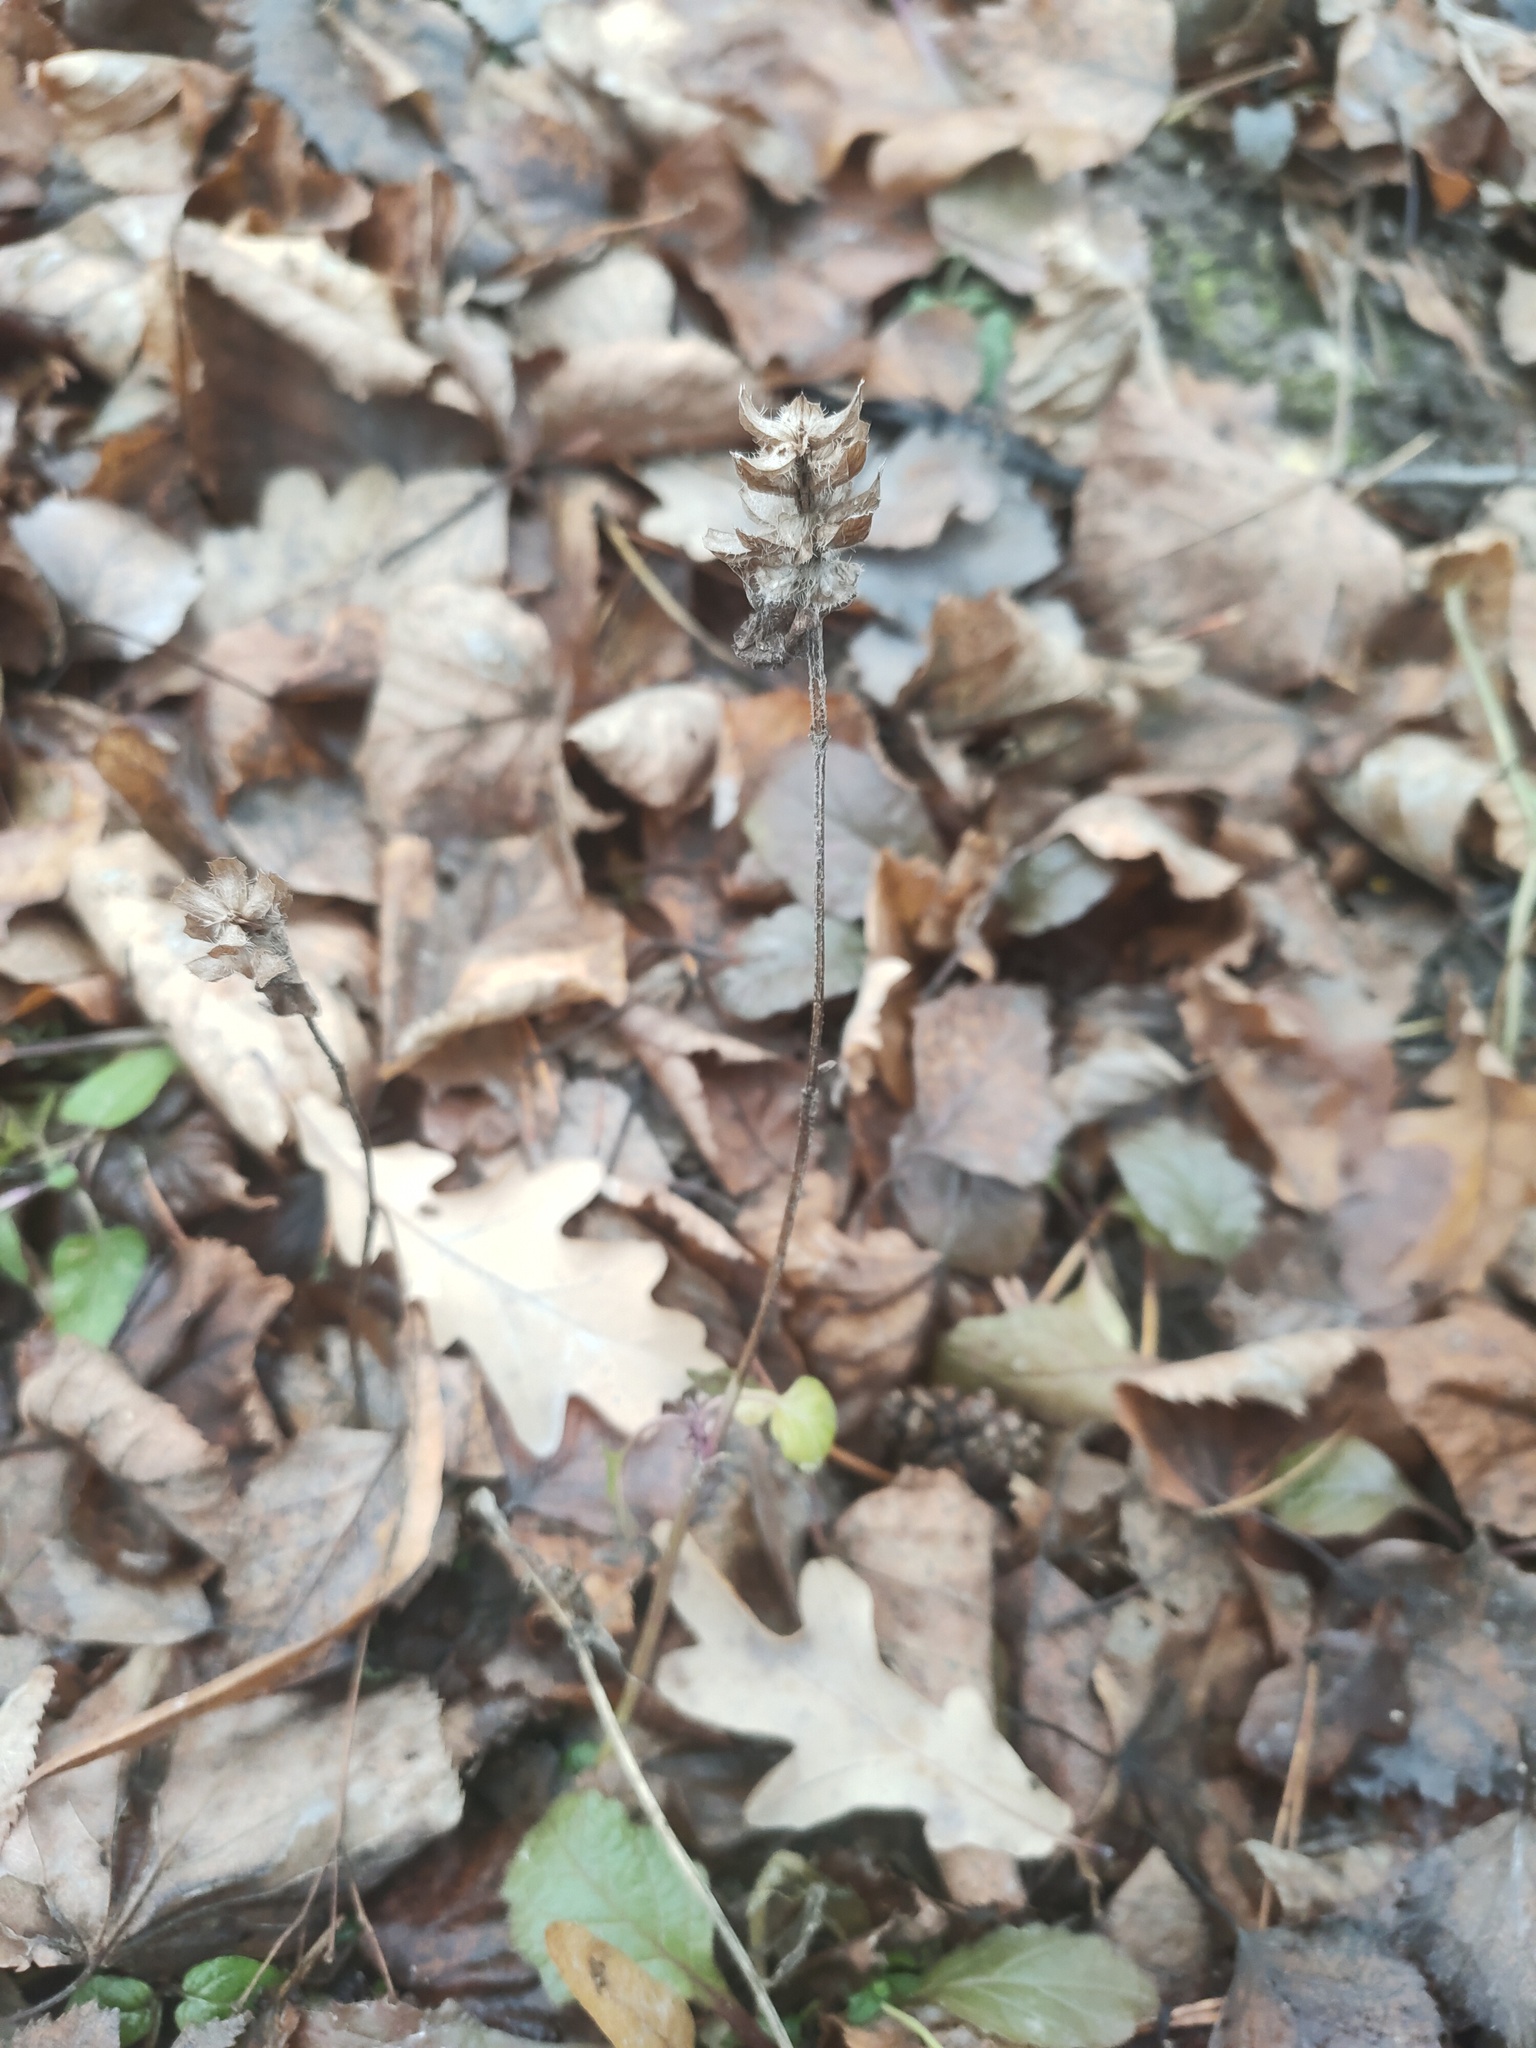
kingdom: Plantae
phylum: Tracheophyta
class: Magnoliopsida
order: Lamiales
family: Lamiaceae
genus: Prunella
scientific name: Prunella vulgaris
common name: Heal-all
